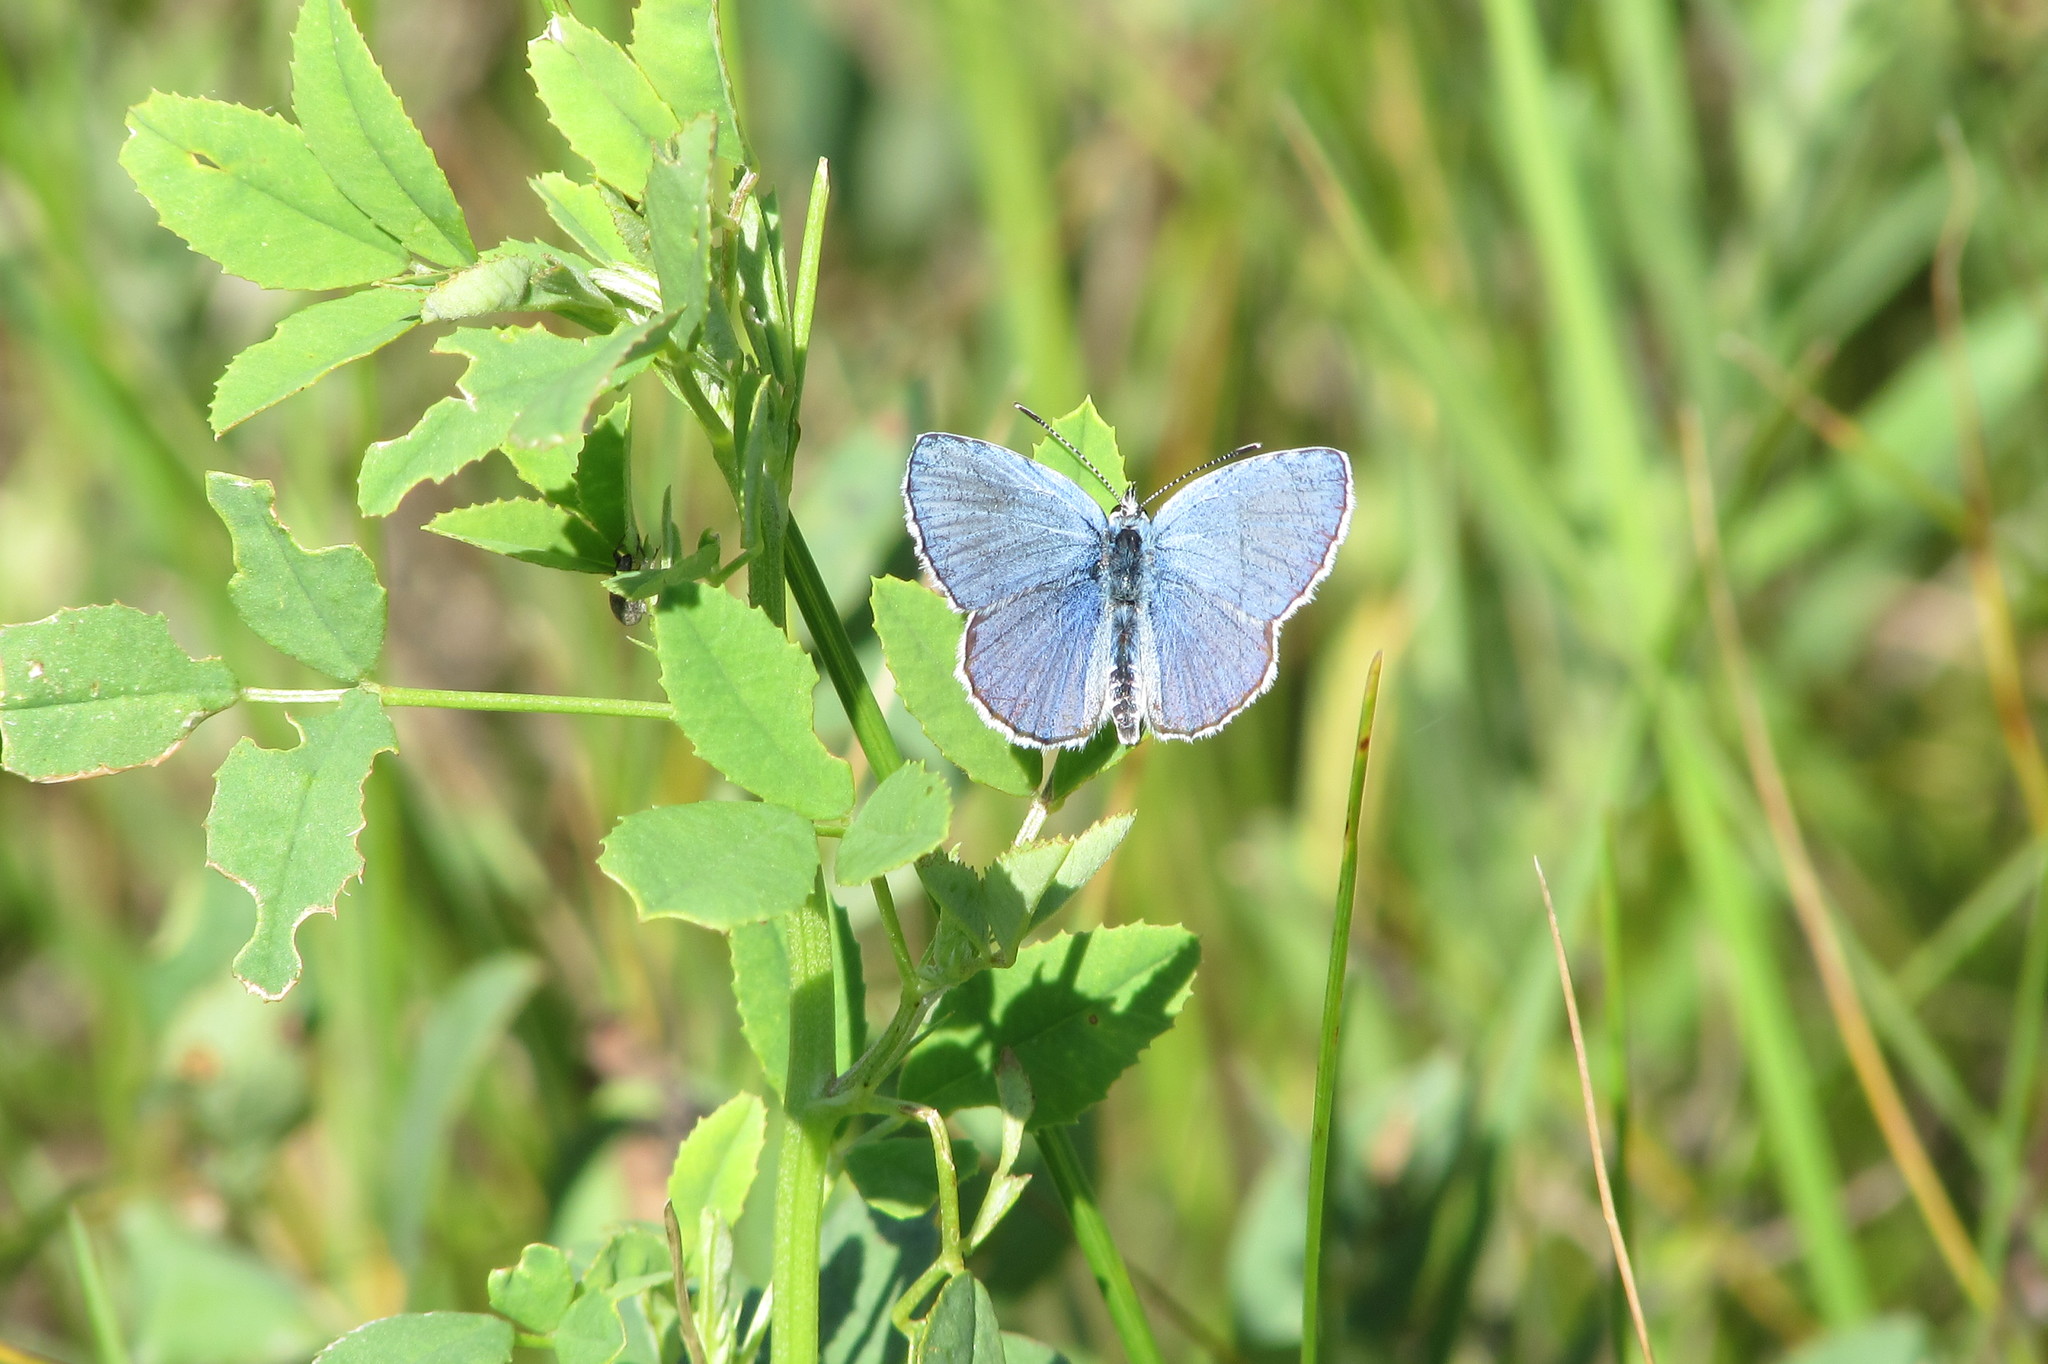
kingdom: Animalia
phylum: Arthropoda
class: Insecta
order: Lepidoptera
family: Lycaenidae
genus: Lycaeides
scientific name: Lycaeides melissa
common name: Melissa blue
